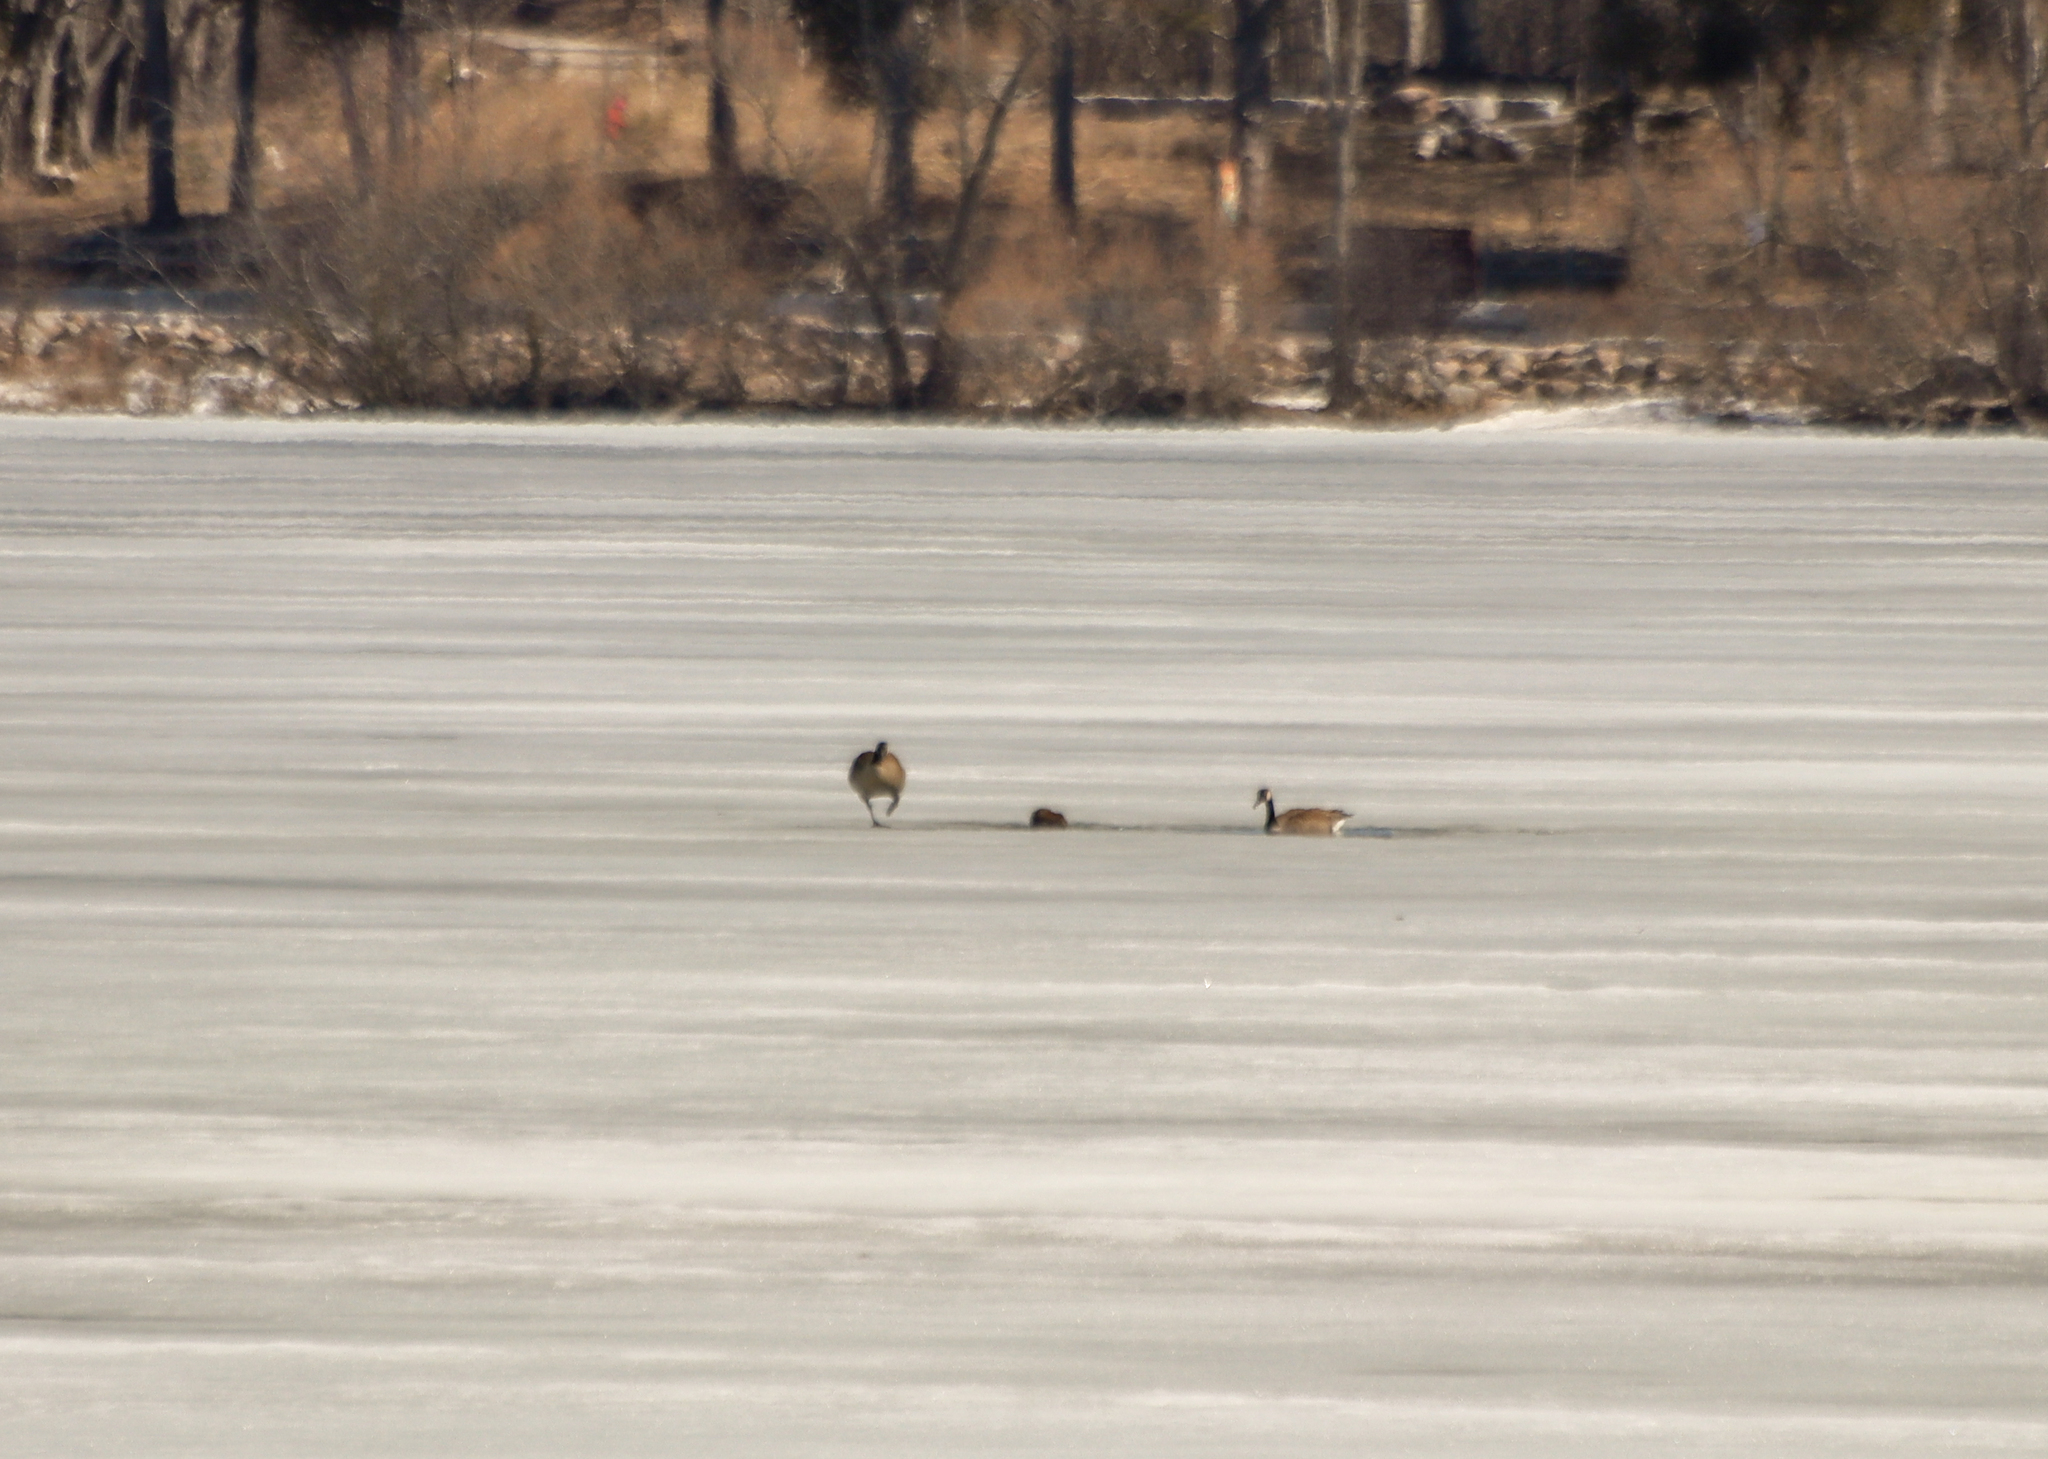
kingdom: Animalia
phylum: Chordata
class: Aves
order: Anseriformes
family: Anatidae
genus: Branta
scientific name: Branta canadensis
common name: Canada goose
